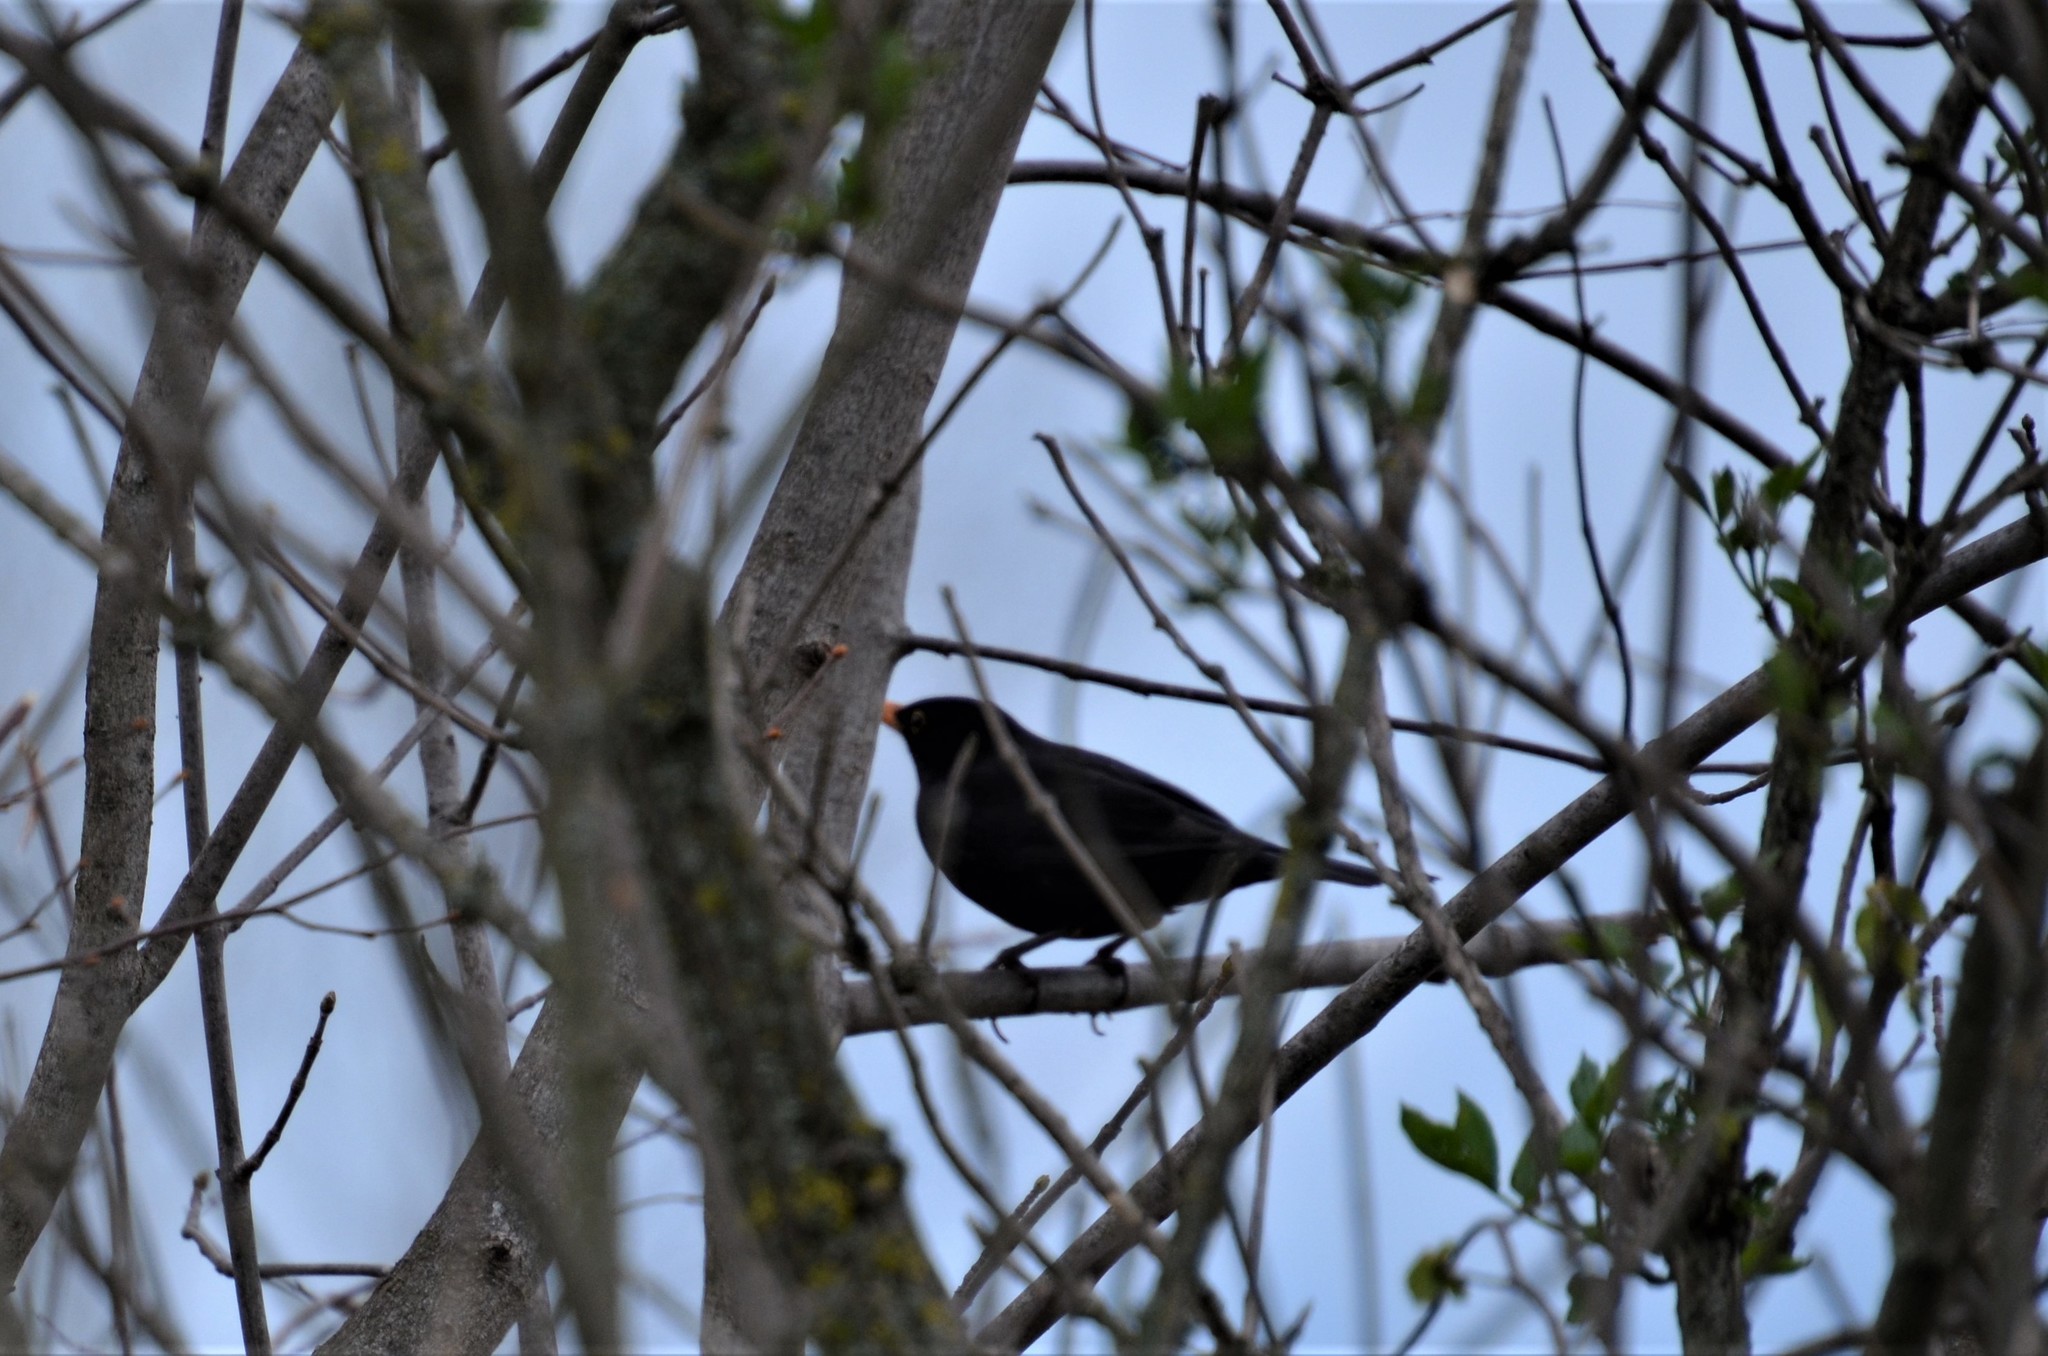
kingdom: Animalia
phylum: Chordata
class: Aves
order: Passeriformes
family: Turdidae
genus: Turdus
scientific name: Turdus merula
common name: Common blackbird
